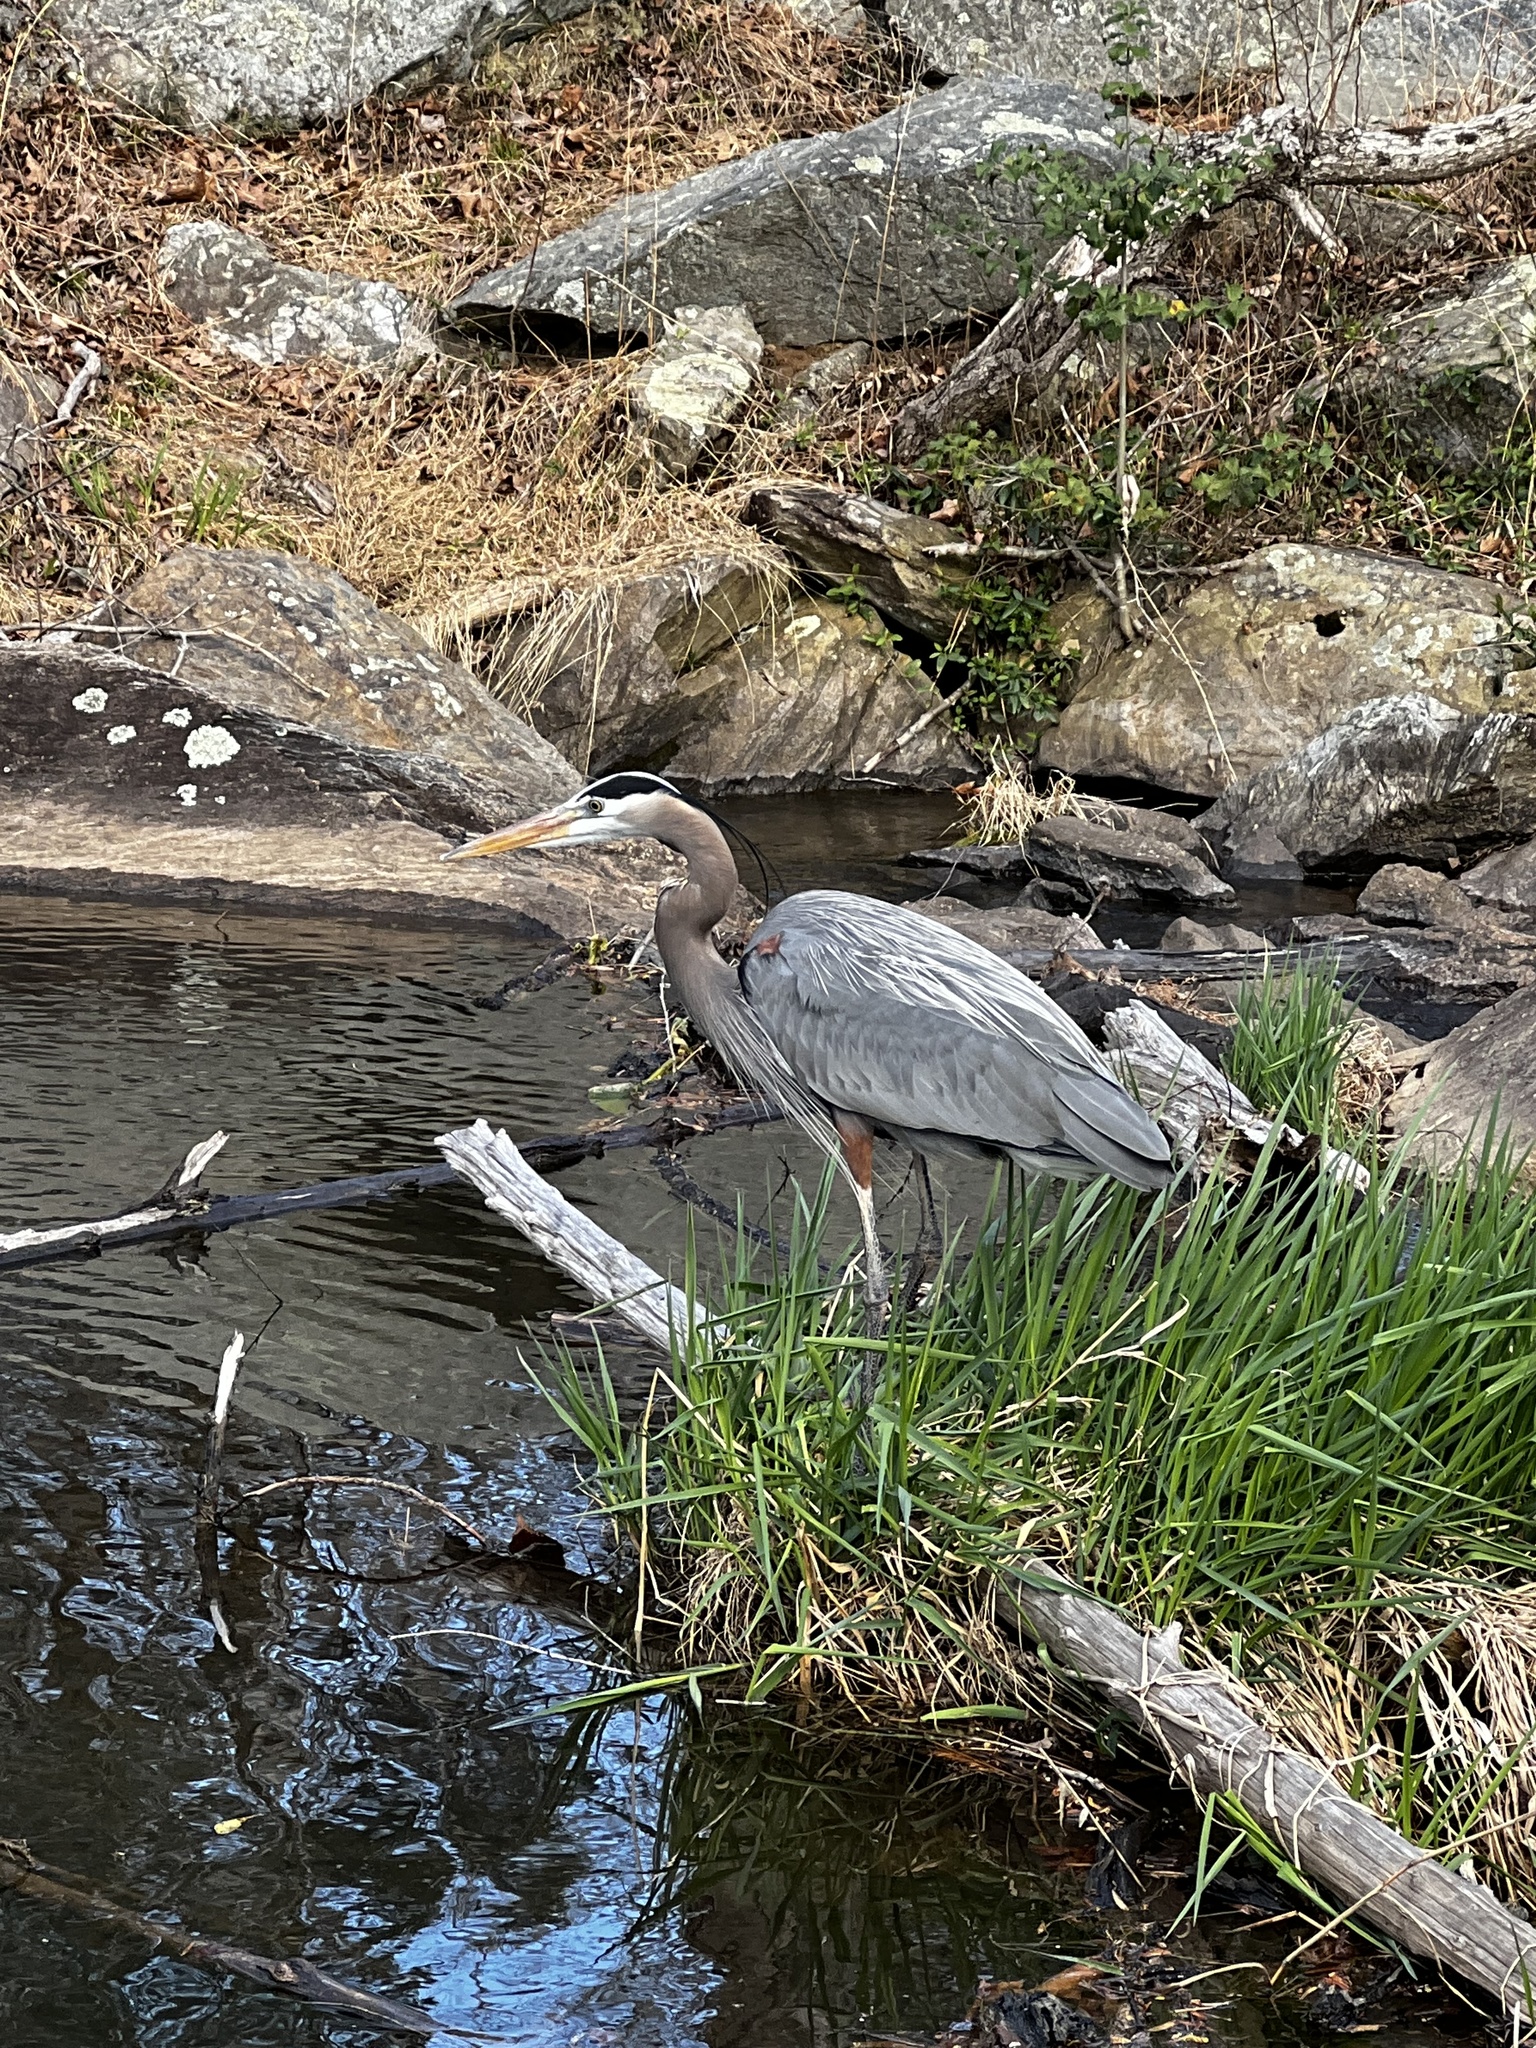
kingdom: Animalia
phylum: Chordata
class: Aves
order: Pelecaniformes
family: Ardeidae
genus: Ardea
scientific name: Ardea herodias
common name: Great blue heron
